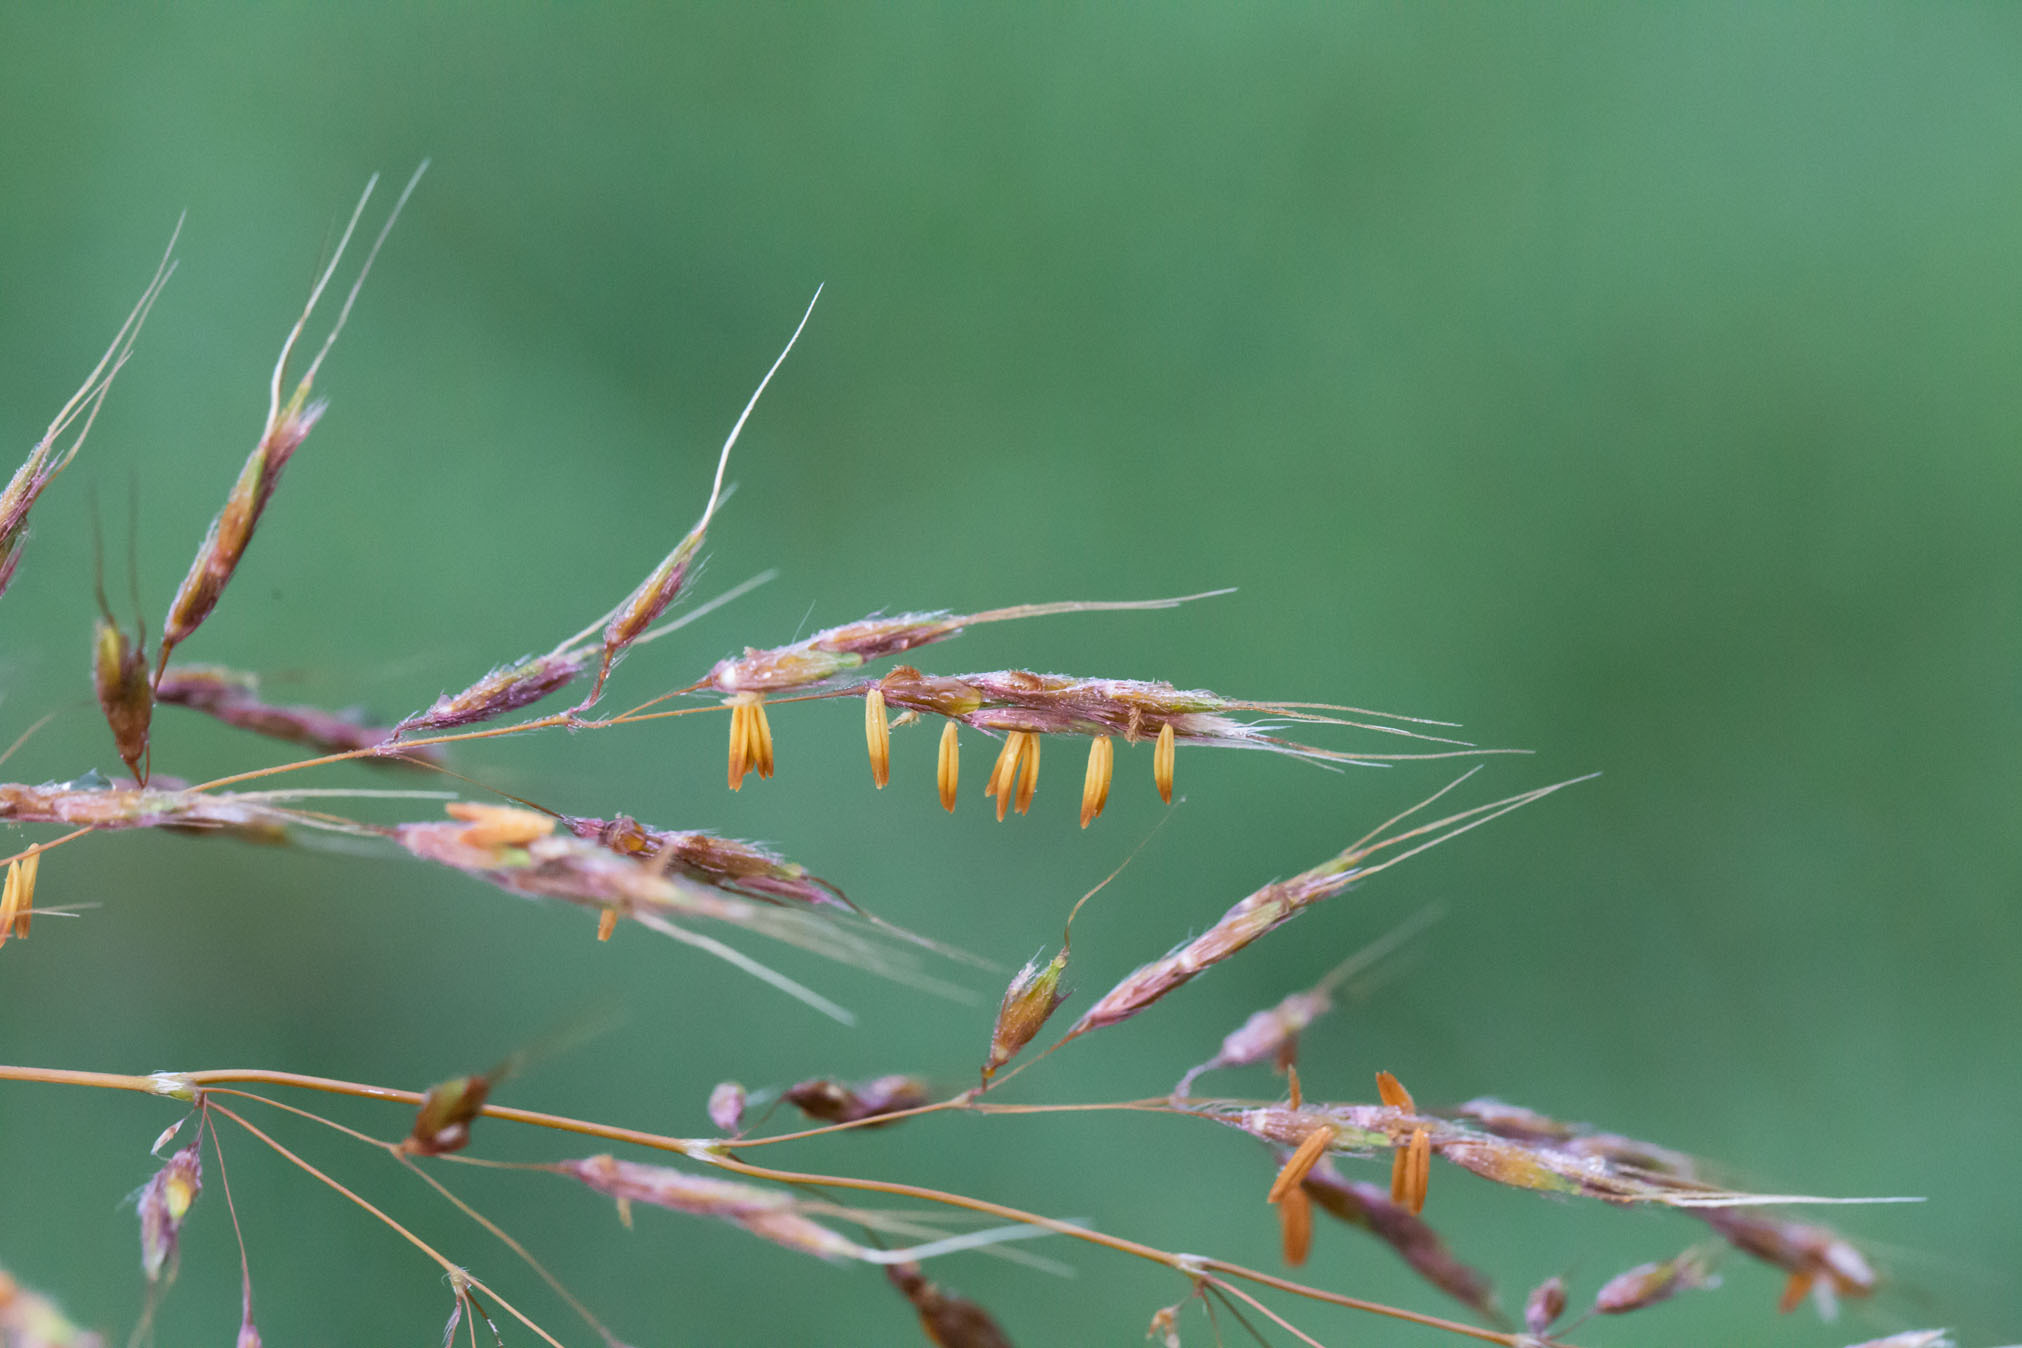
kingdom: Plantae
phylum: Tracheophyta
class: Liliopsida
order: Poales
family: Poaceae
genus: Sorghastrum
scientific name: Sorghastrum nutans
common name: Indian grass
